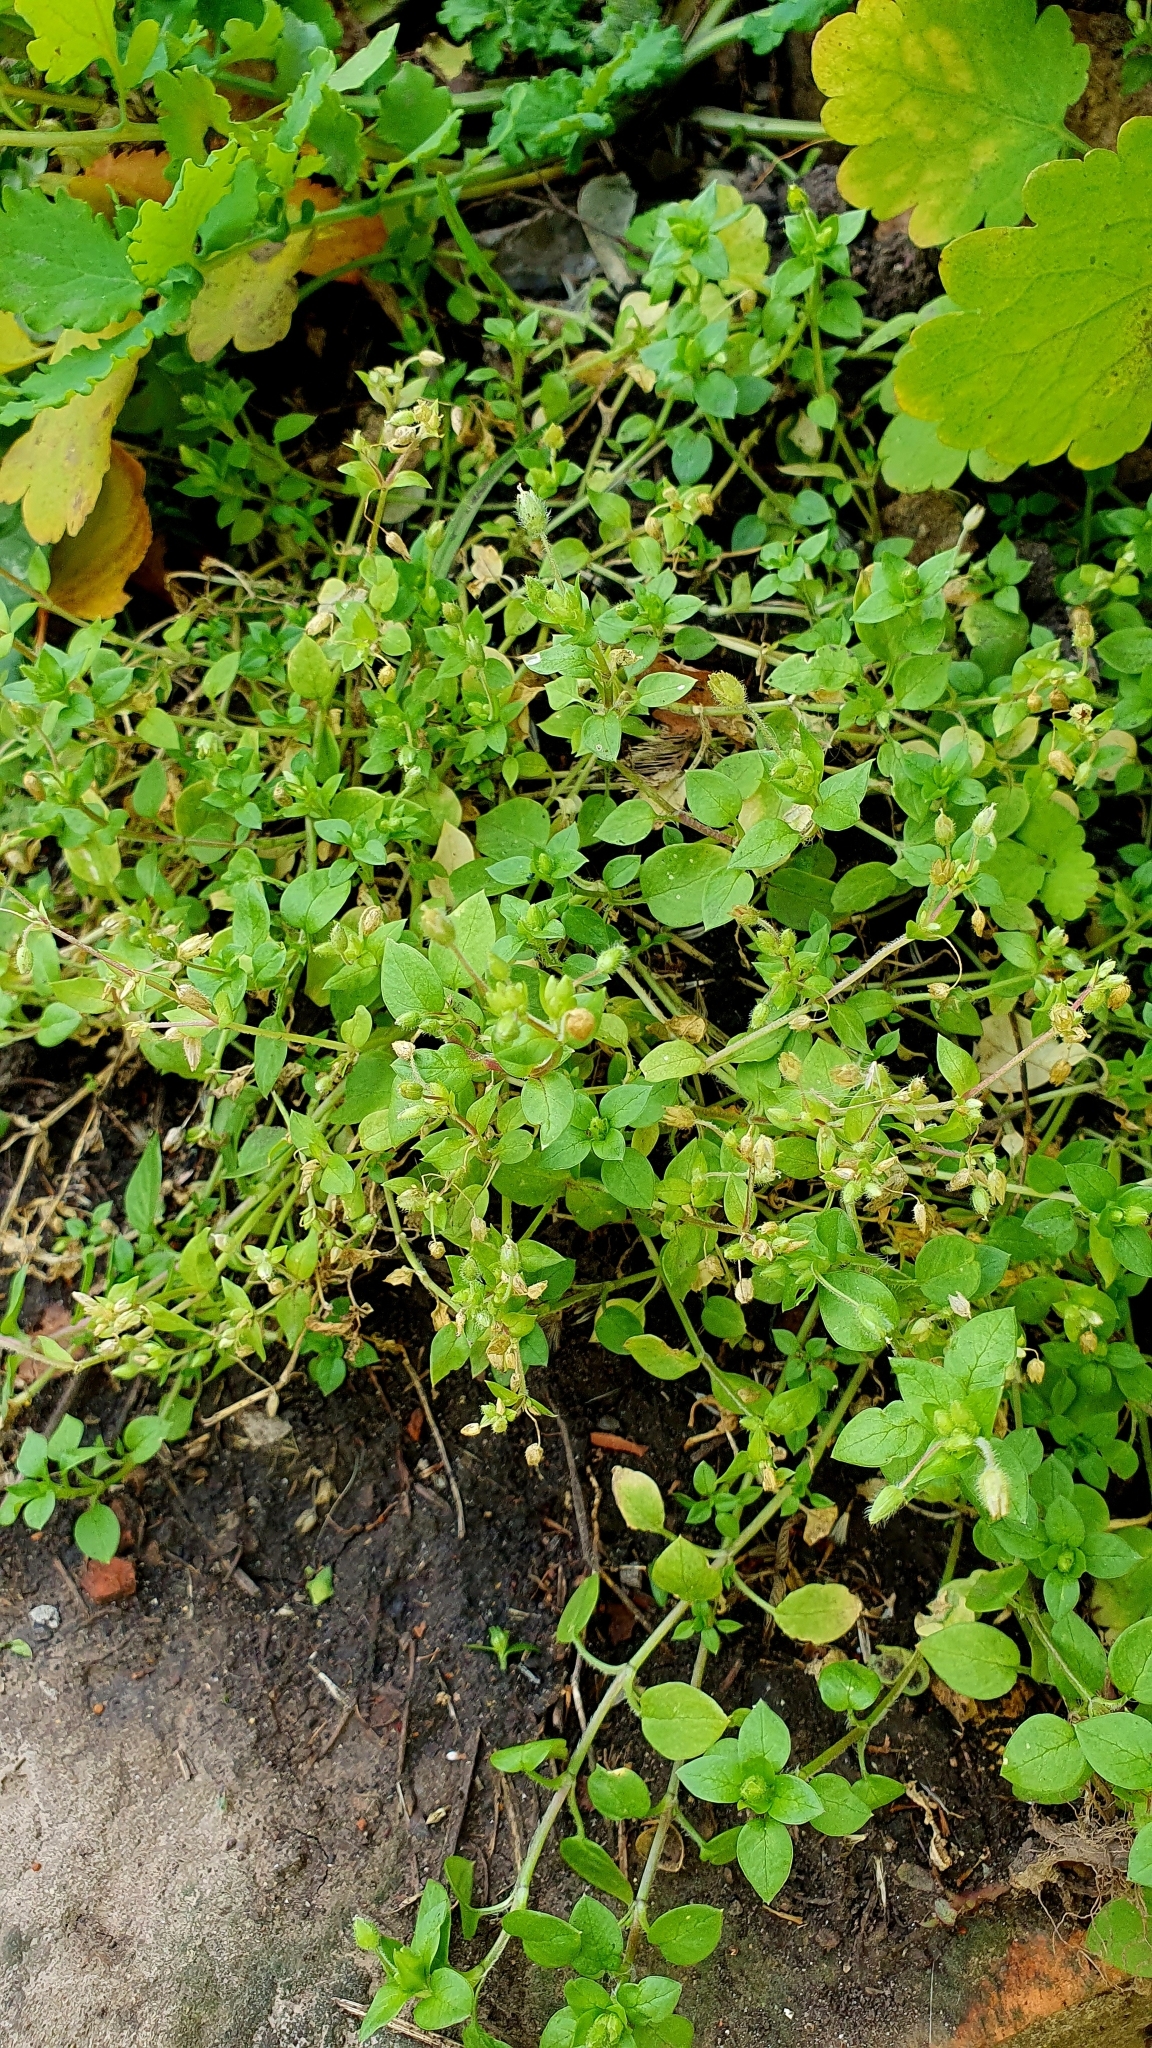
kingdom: Plantae
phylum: Tracheophyta
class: Magnoliopsida
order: Caryophyllales
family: Caryophyllaceae
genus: Stellaria
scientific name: Stellaria media
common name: Common chickweed
